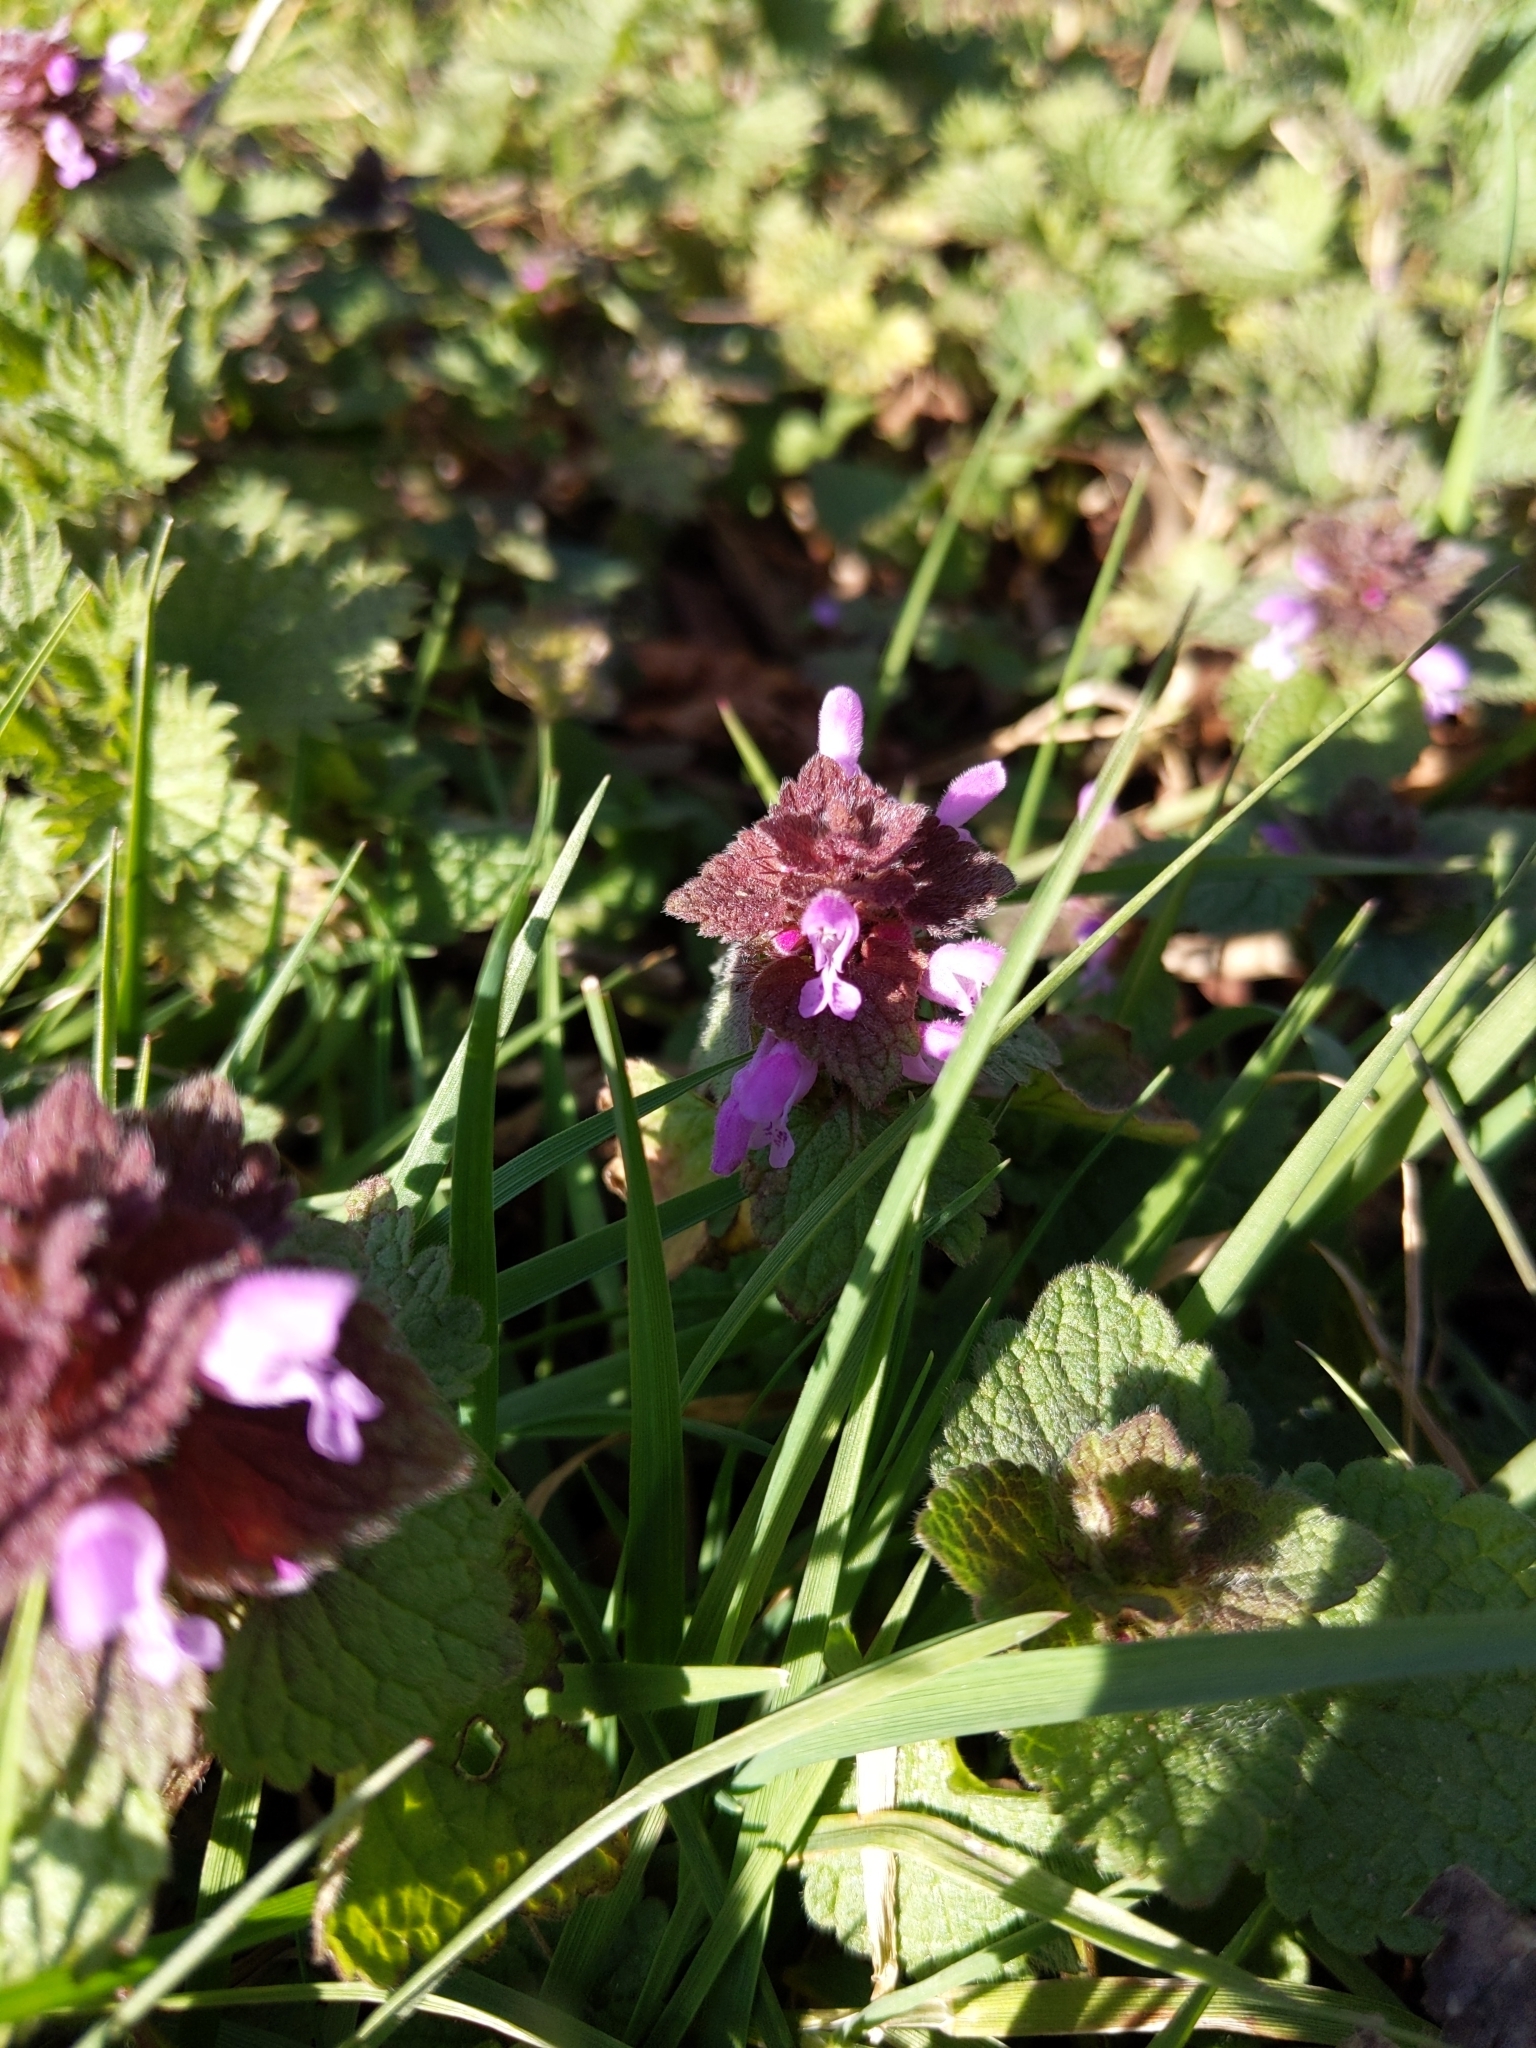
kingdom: Plantae
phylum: Tracheophyta
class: Magnoliopsida
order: Lamiales
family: Lamiaceae
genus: Lamium
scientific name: Lamium purpureum
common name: Red dead-nettle
